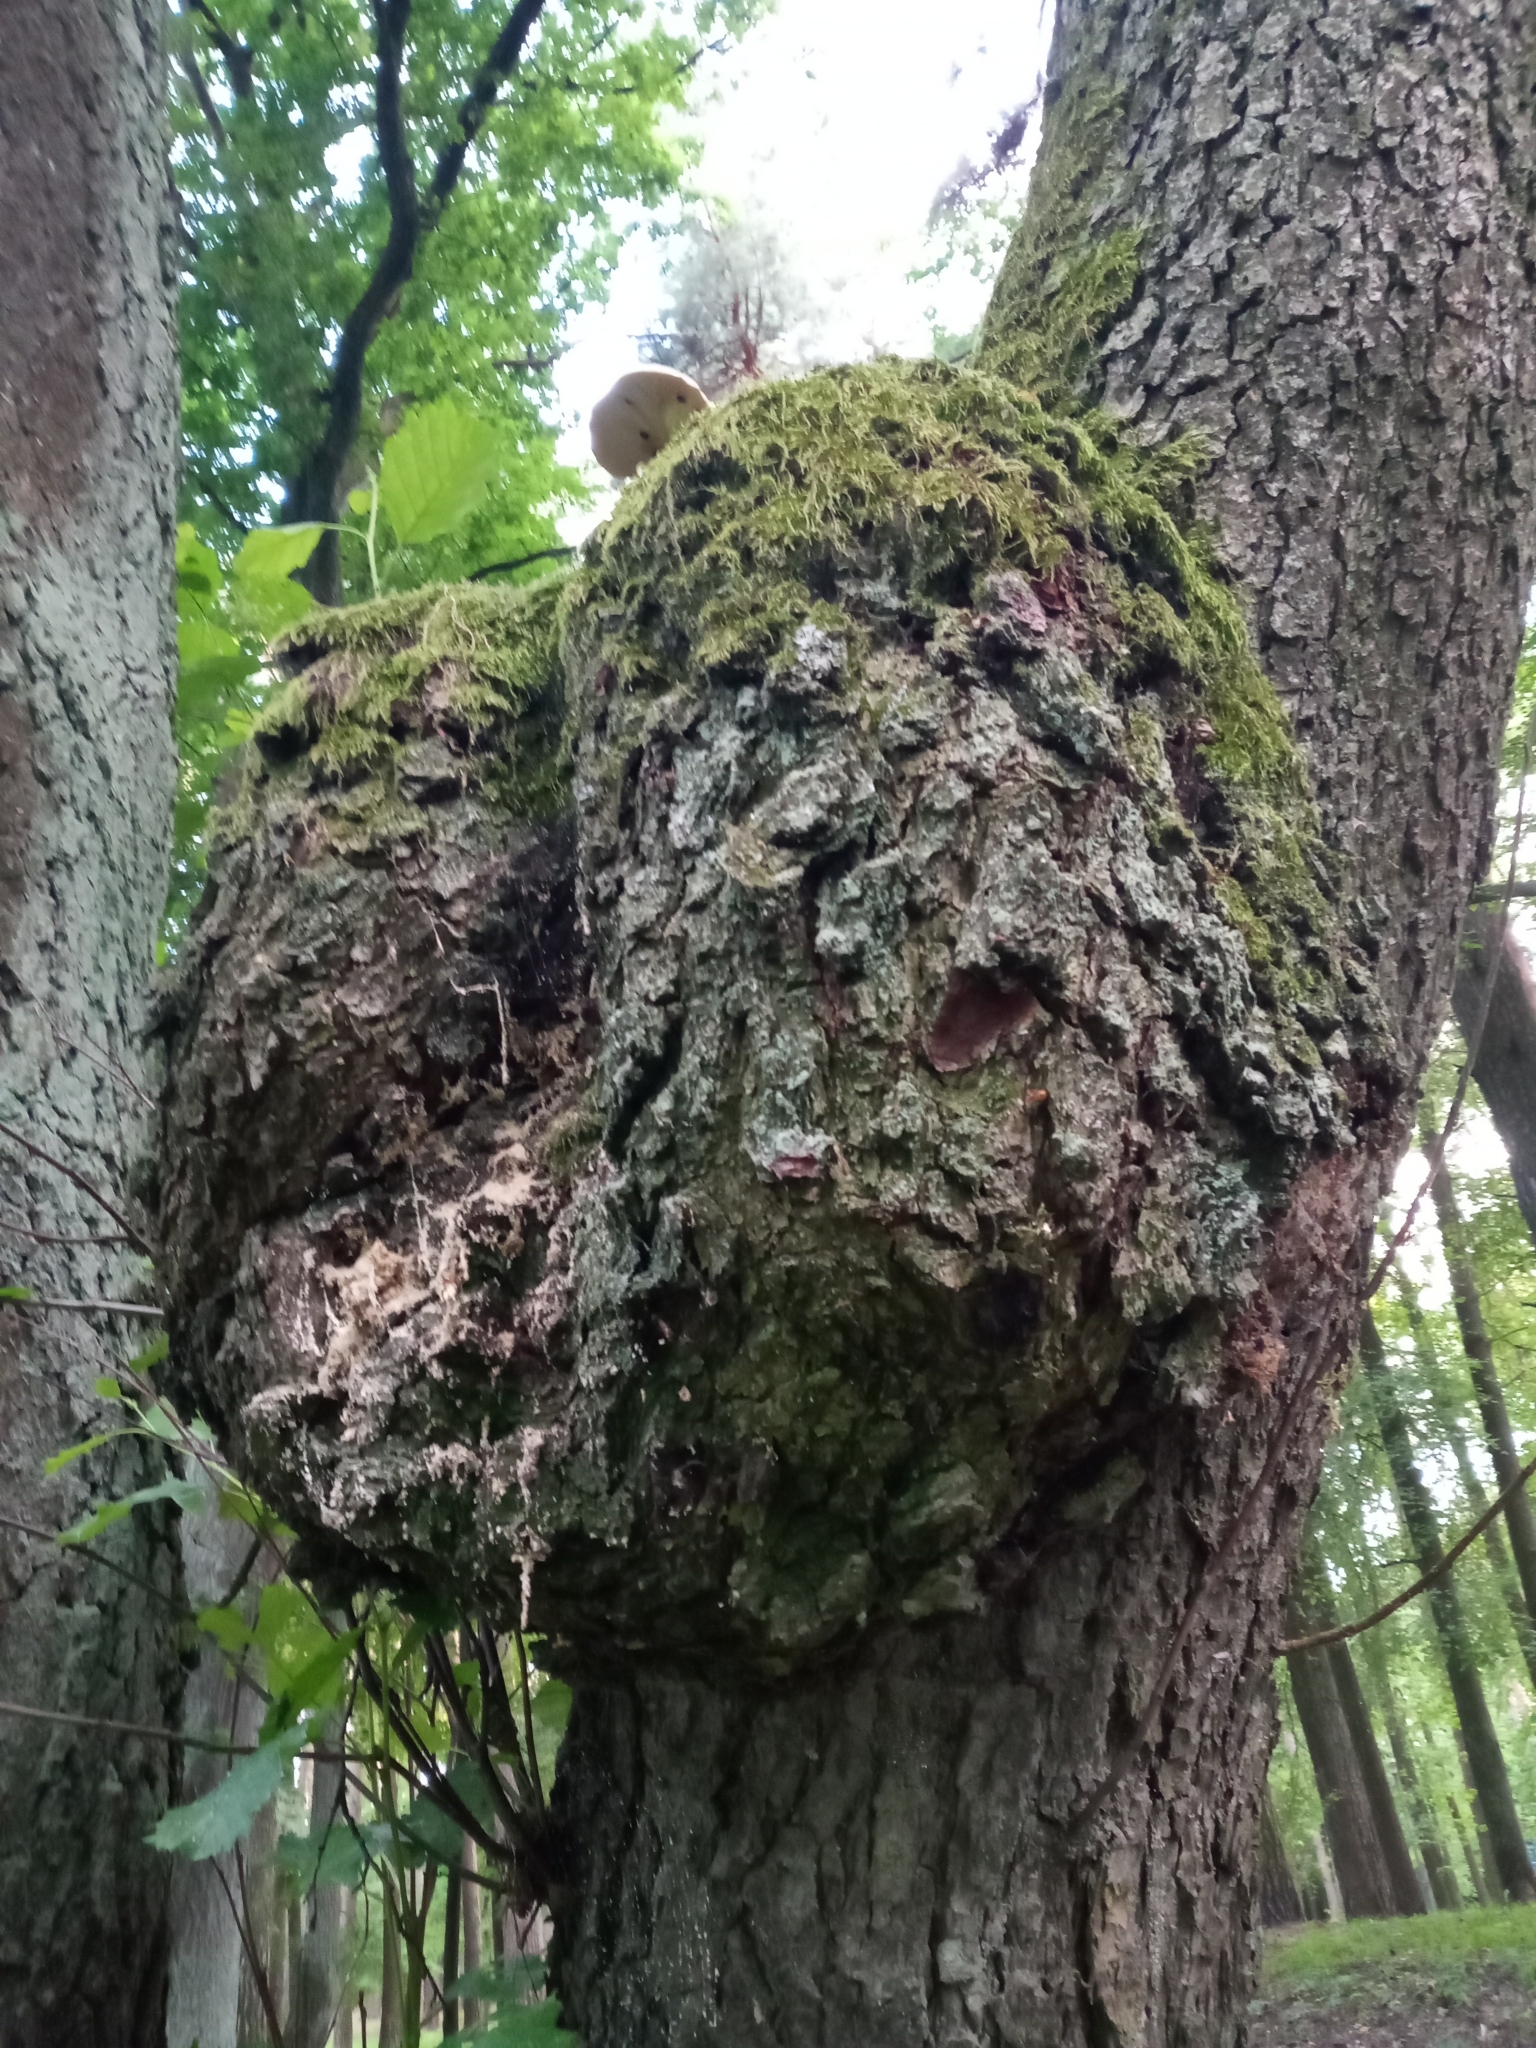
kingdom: Bacteria
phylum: Proteobacteria
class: Alphaproteobacteria
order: Rhizobiales
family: Rhizobiaceae
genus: Rhizobium
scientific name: Rhizobium Agrobacterium radiobacter
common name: Bacterial crown gall
